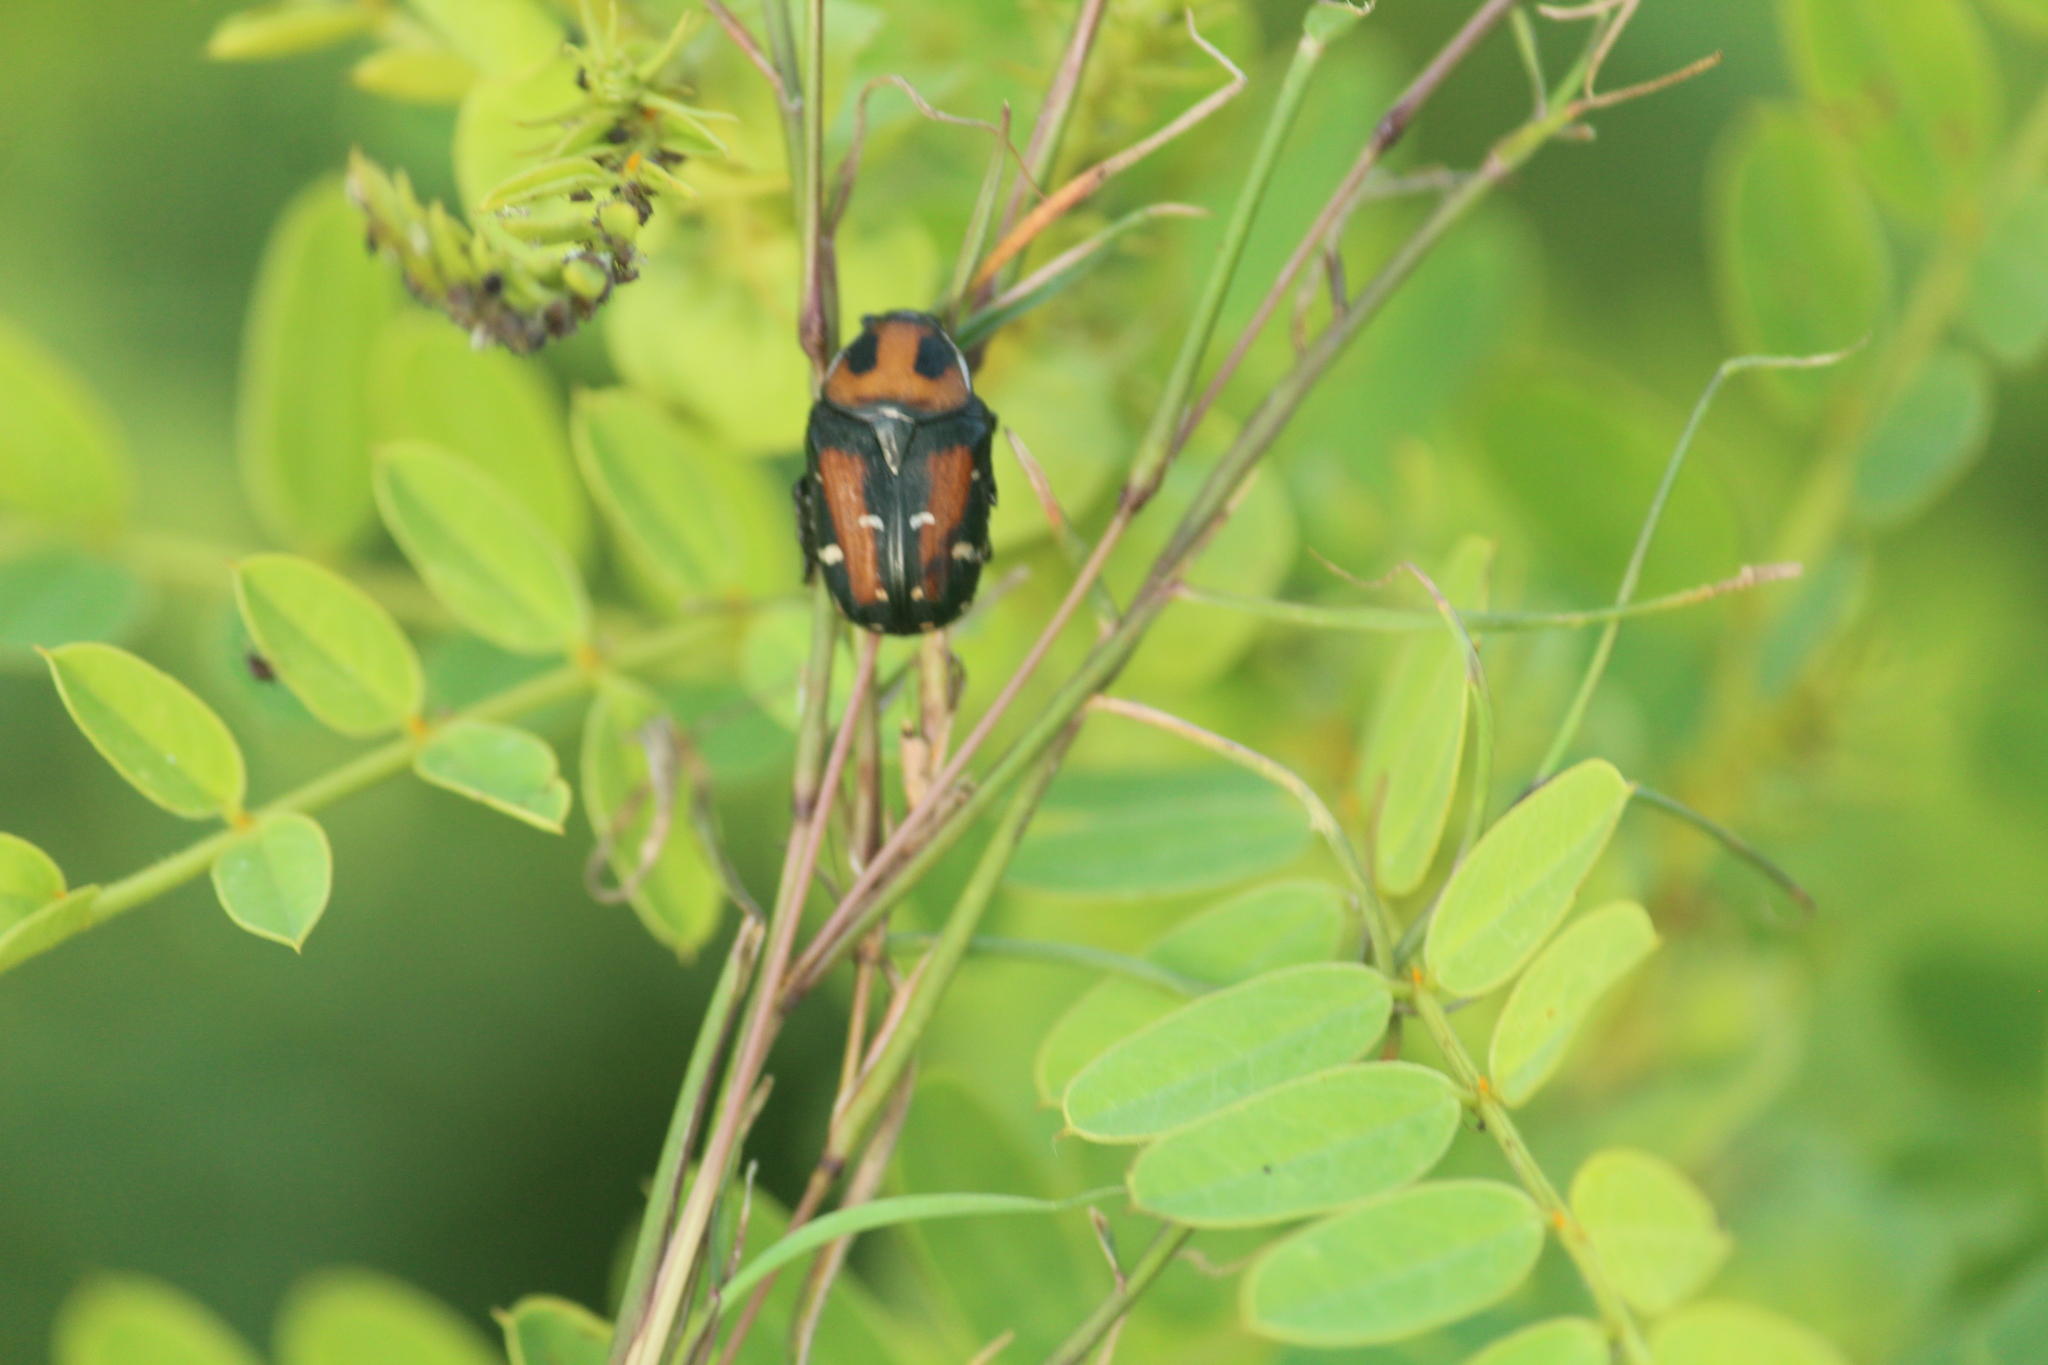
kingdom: Animalia
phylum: Arthropoda
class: Insecta
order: Coleoptera
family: Scarabaeidae
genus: Gametis
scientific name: Gametis versicolor
